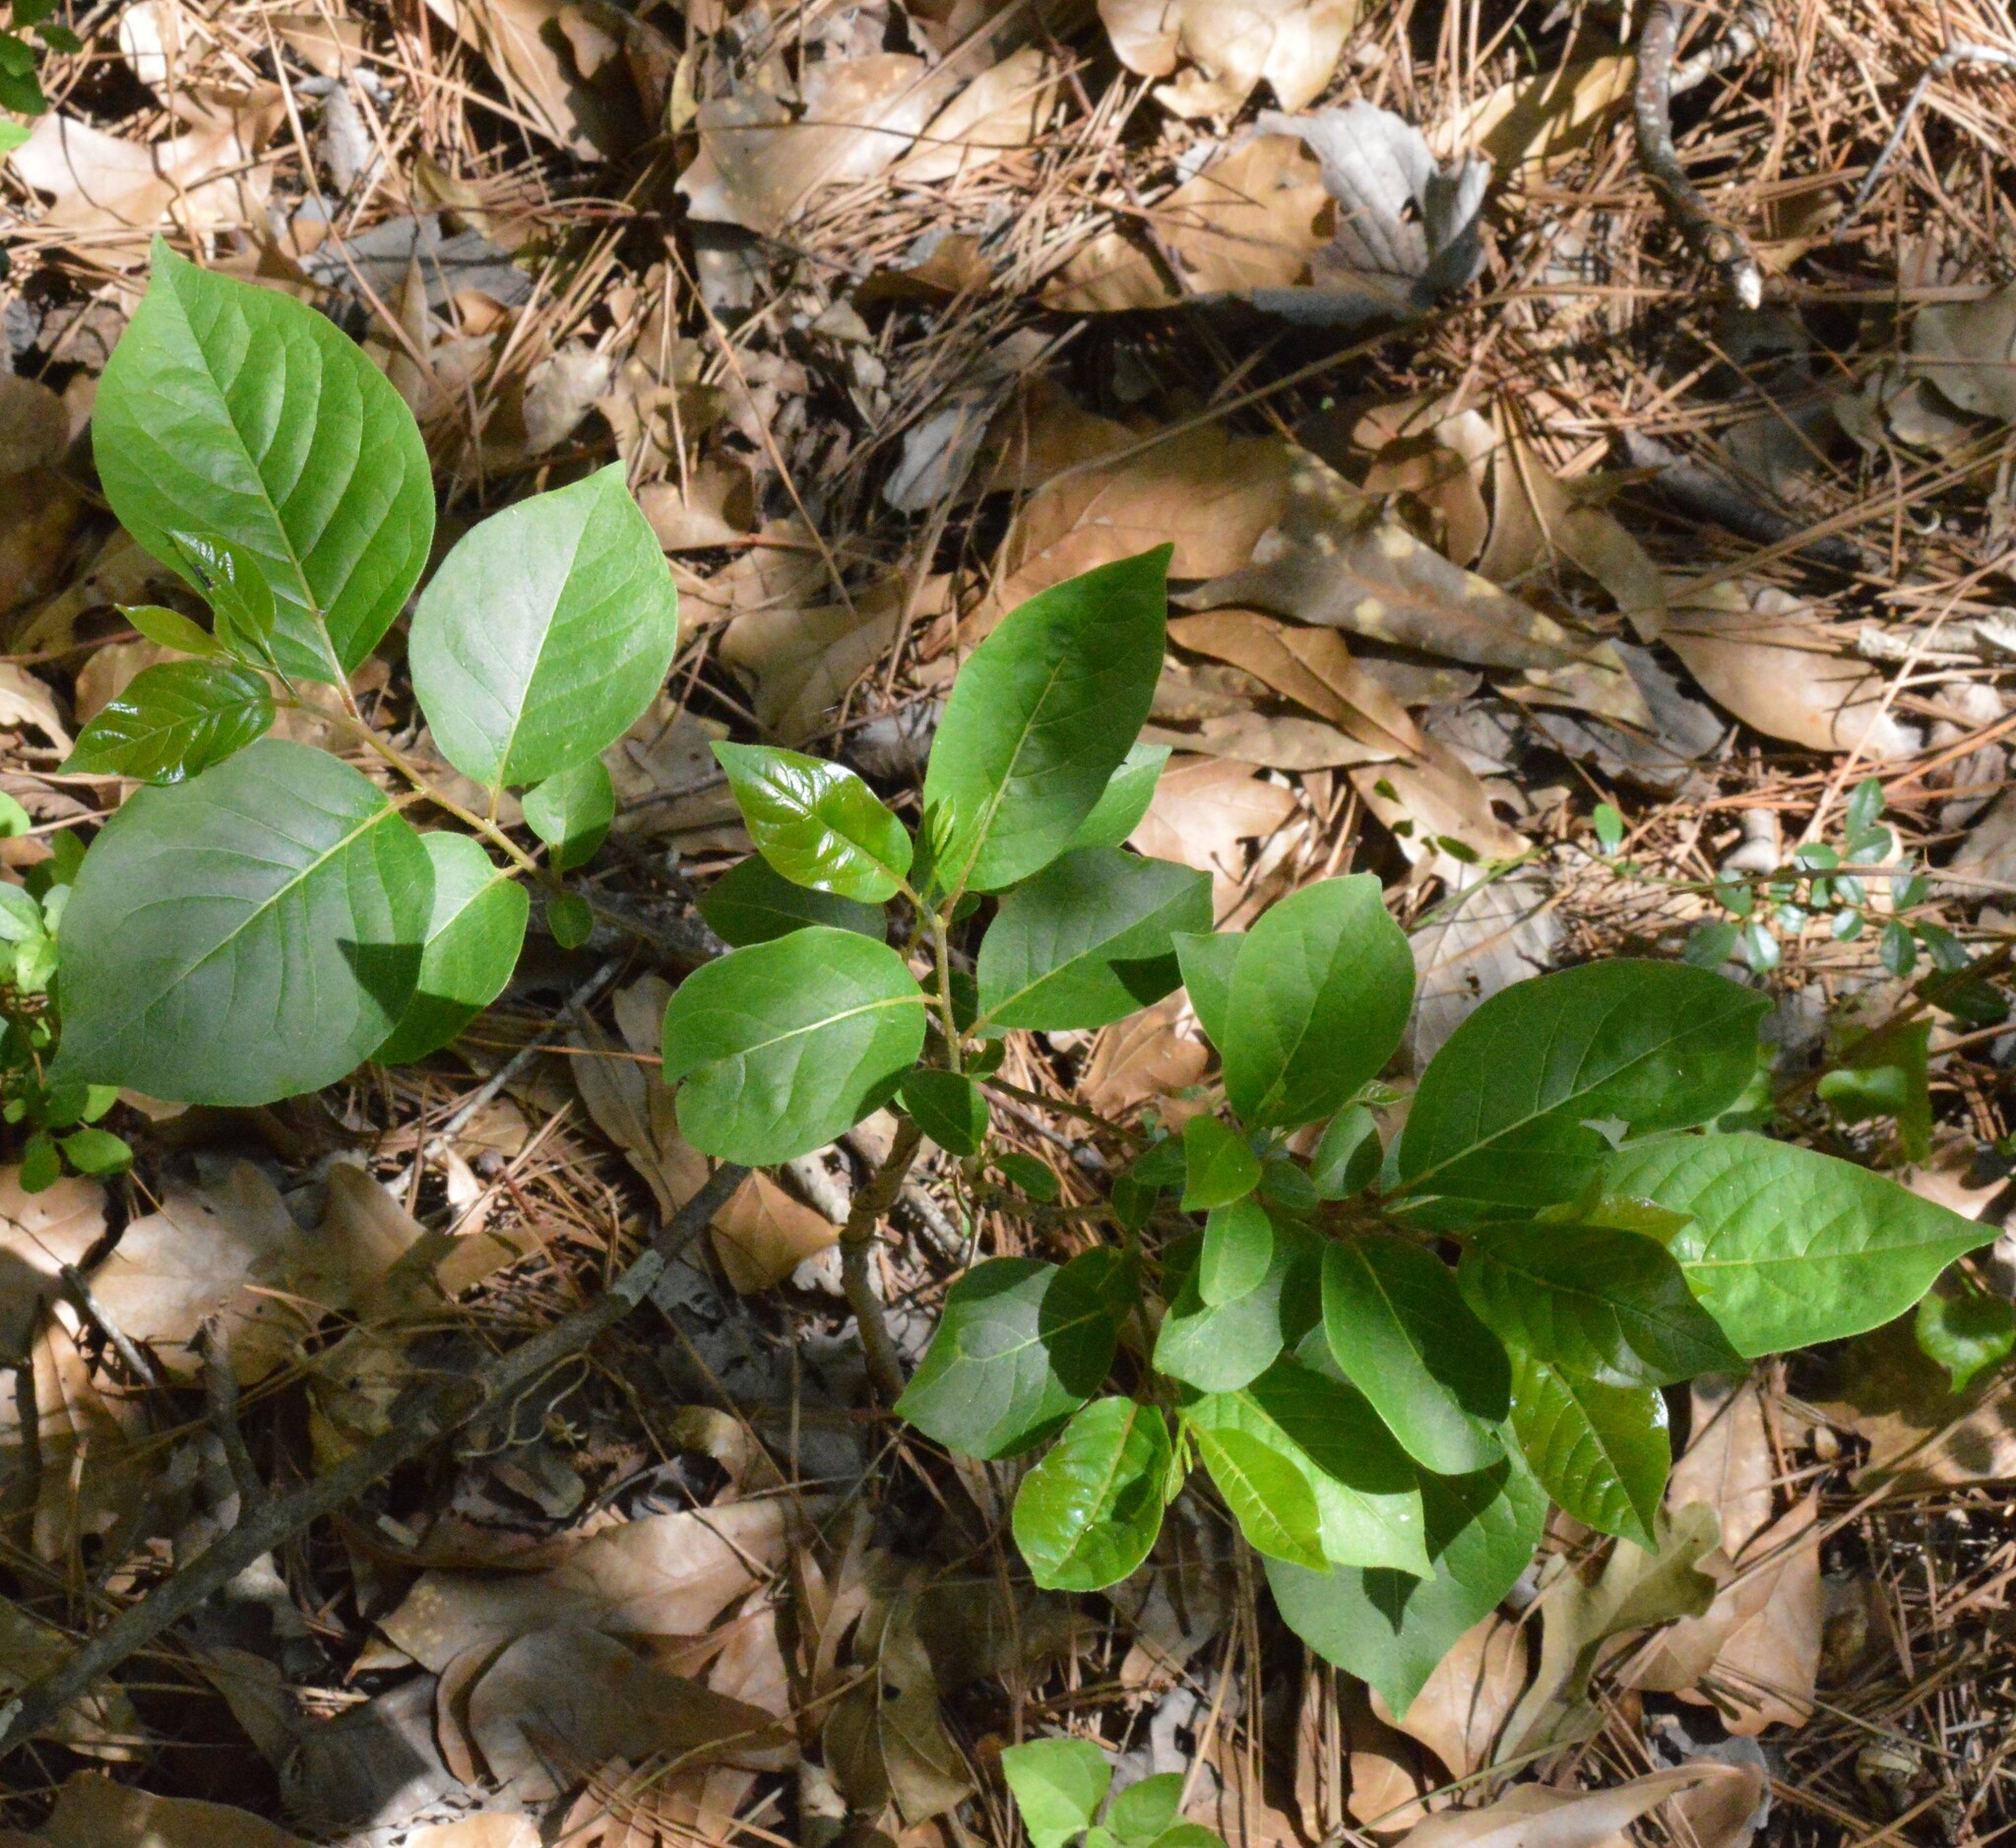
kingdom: Plantae
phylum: Tracheophyta
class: Magnoliopsida
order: Ericales
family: Ebenaceae
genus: Diospyros
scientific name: Diospyros virginiana
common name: Persimmon
